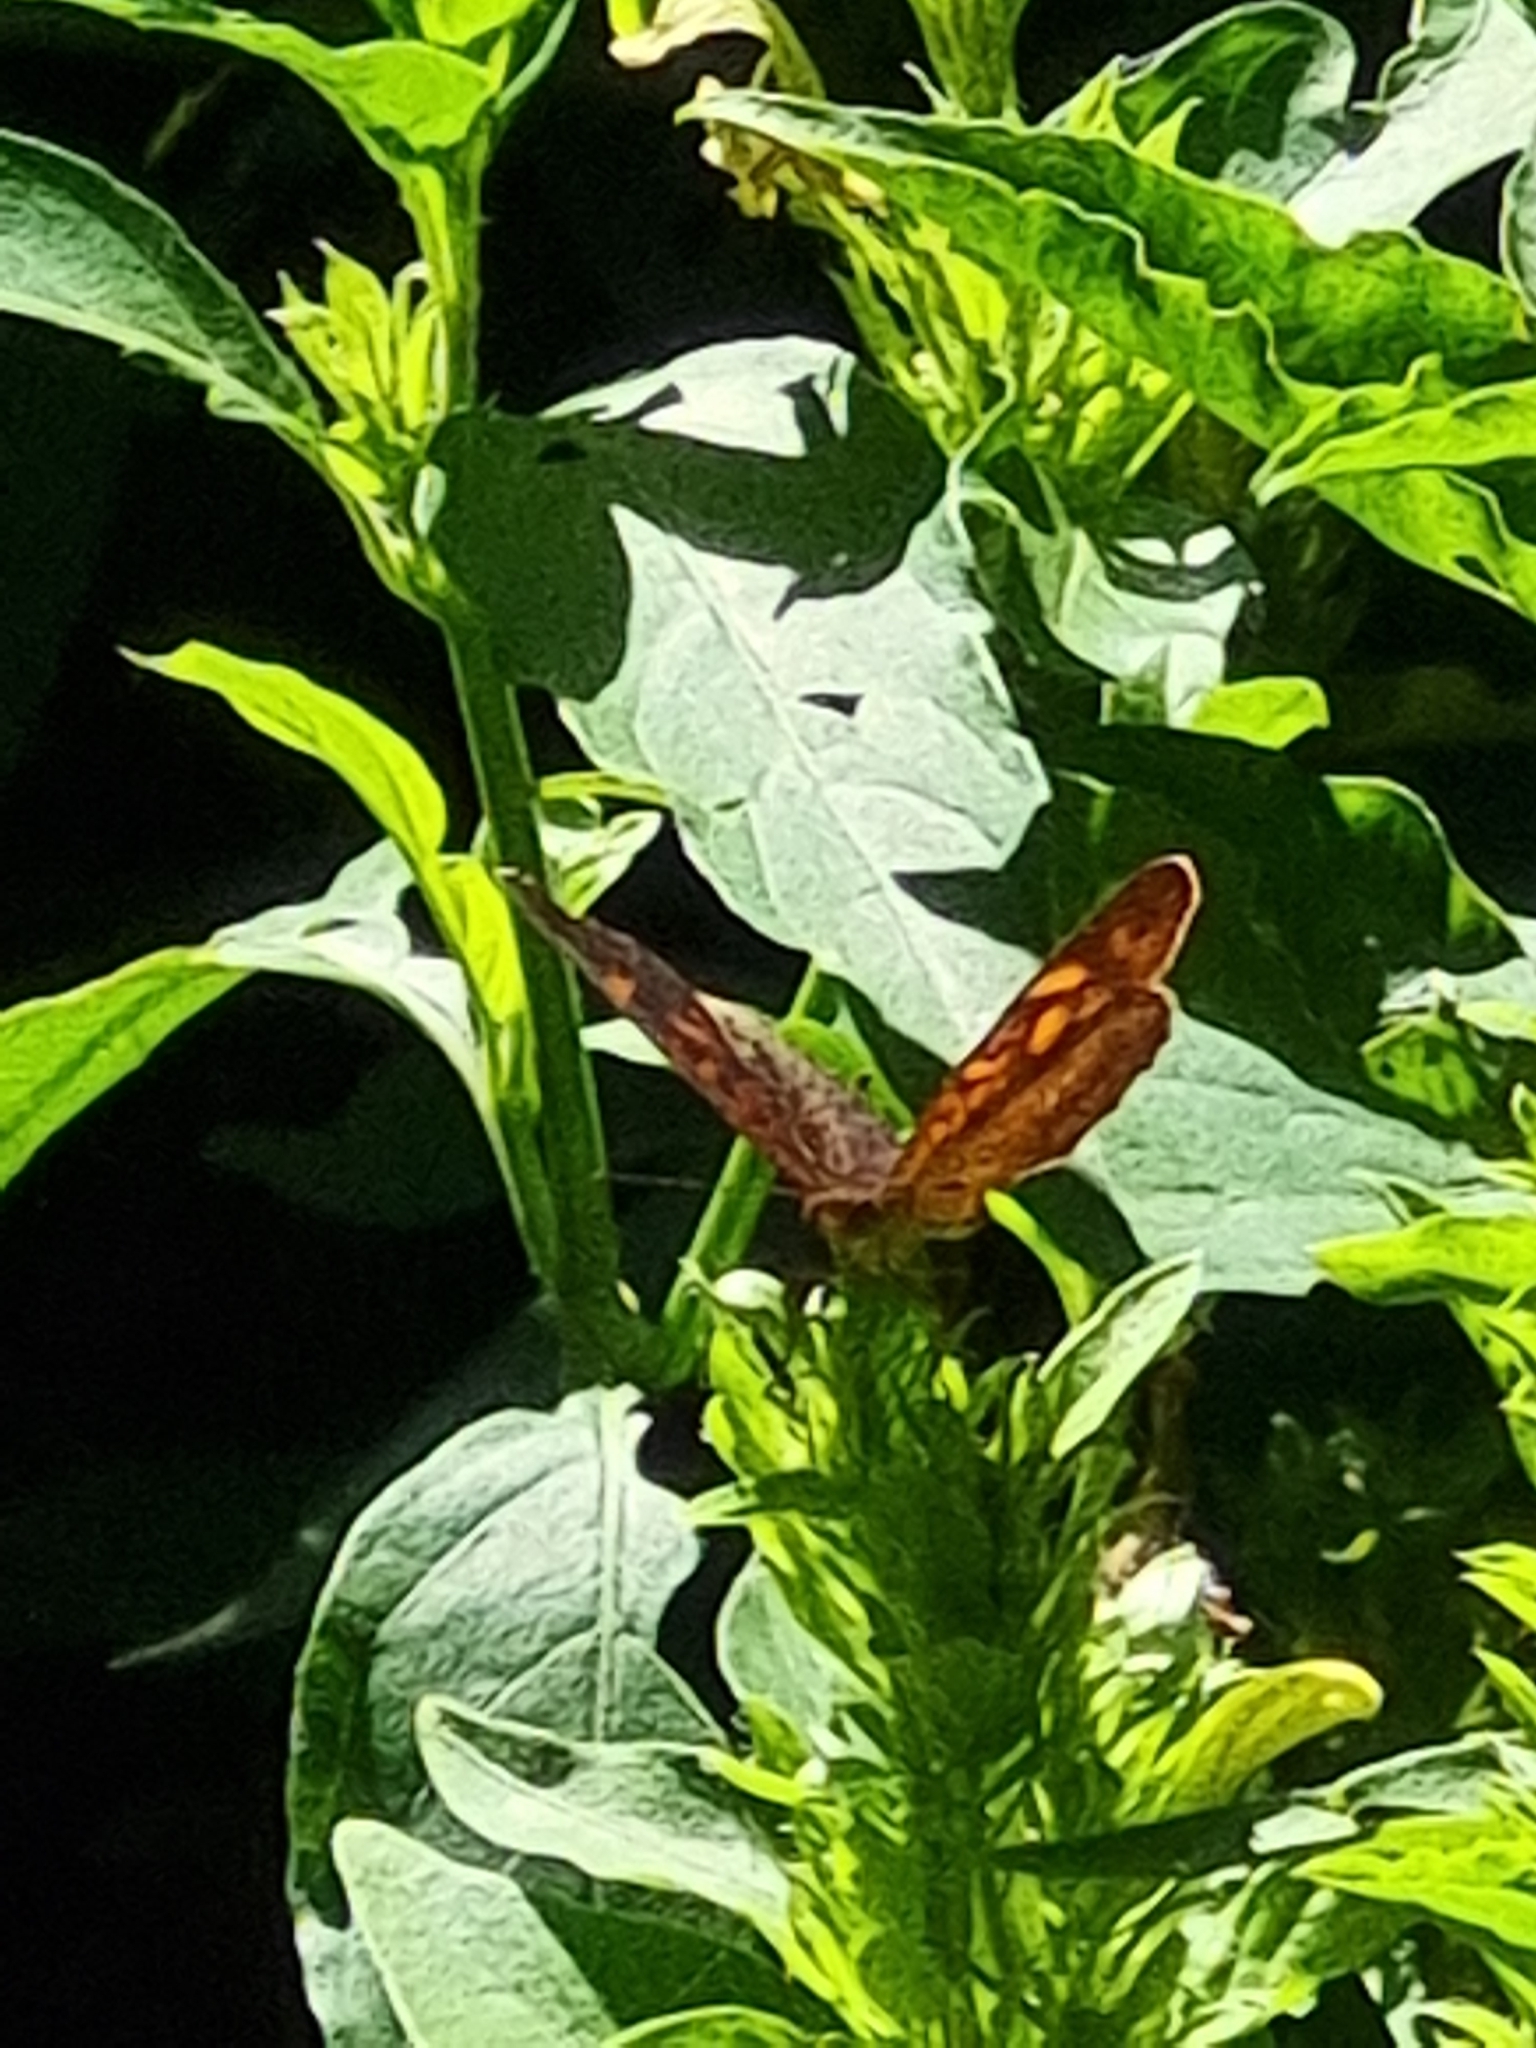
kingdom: Animalia
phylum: Arthropoda
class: Insecta
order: Lepidoptera
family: Nymphalidae
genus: Ortilia
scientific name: Ortilia velica
